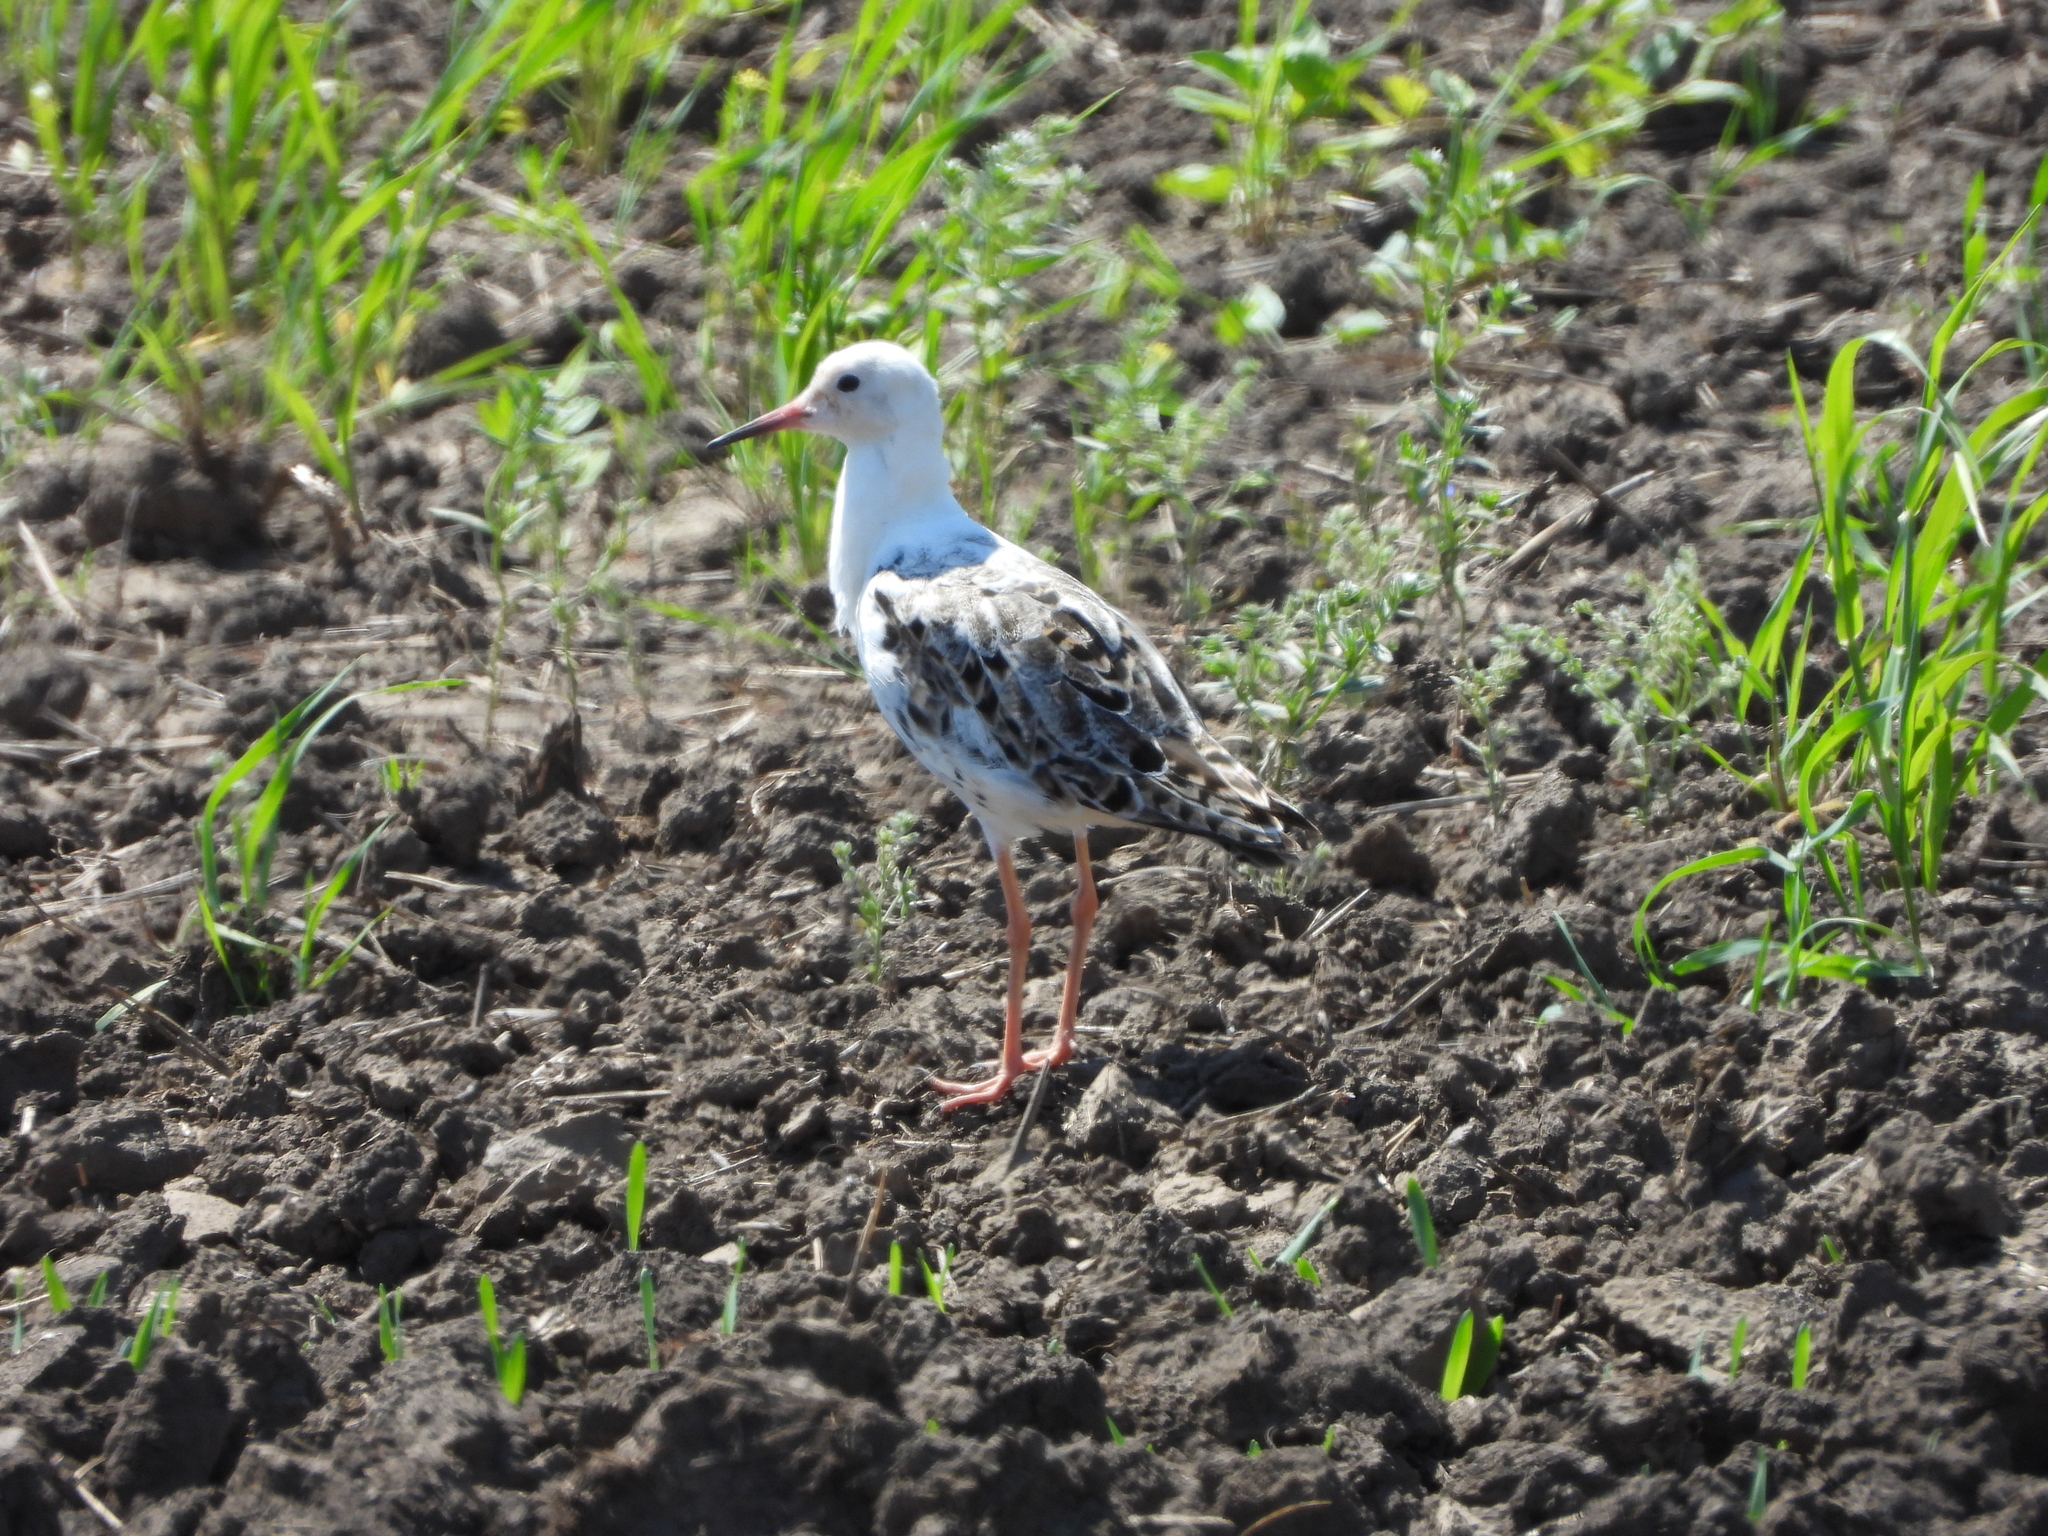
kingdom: Animalia
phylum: Chordata
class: Aves
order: Charadriiformes
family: Scolopacidae
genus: Calidris
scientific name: Calidris pugnax
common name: Ruff
